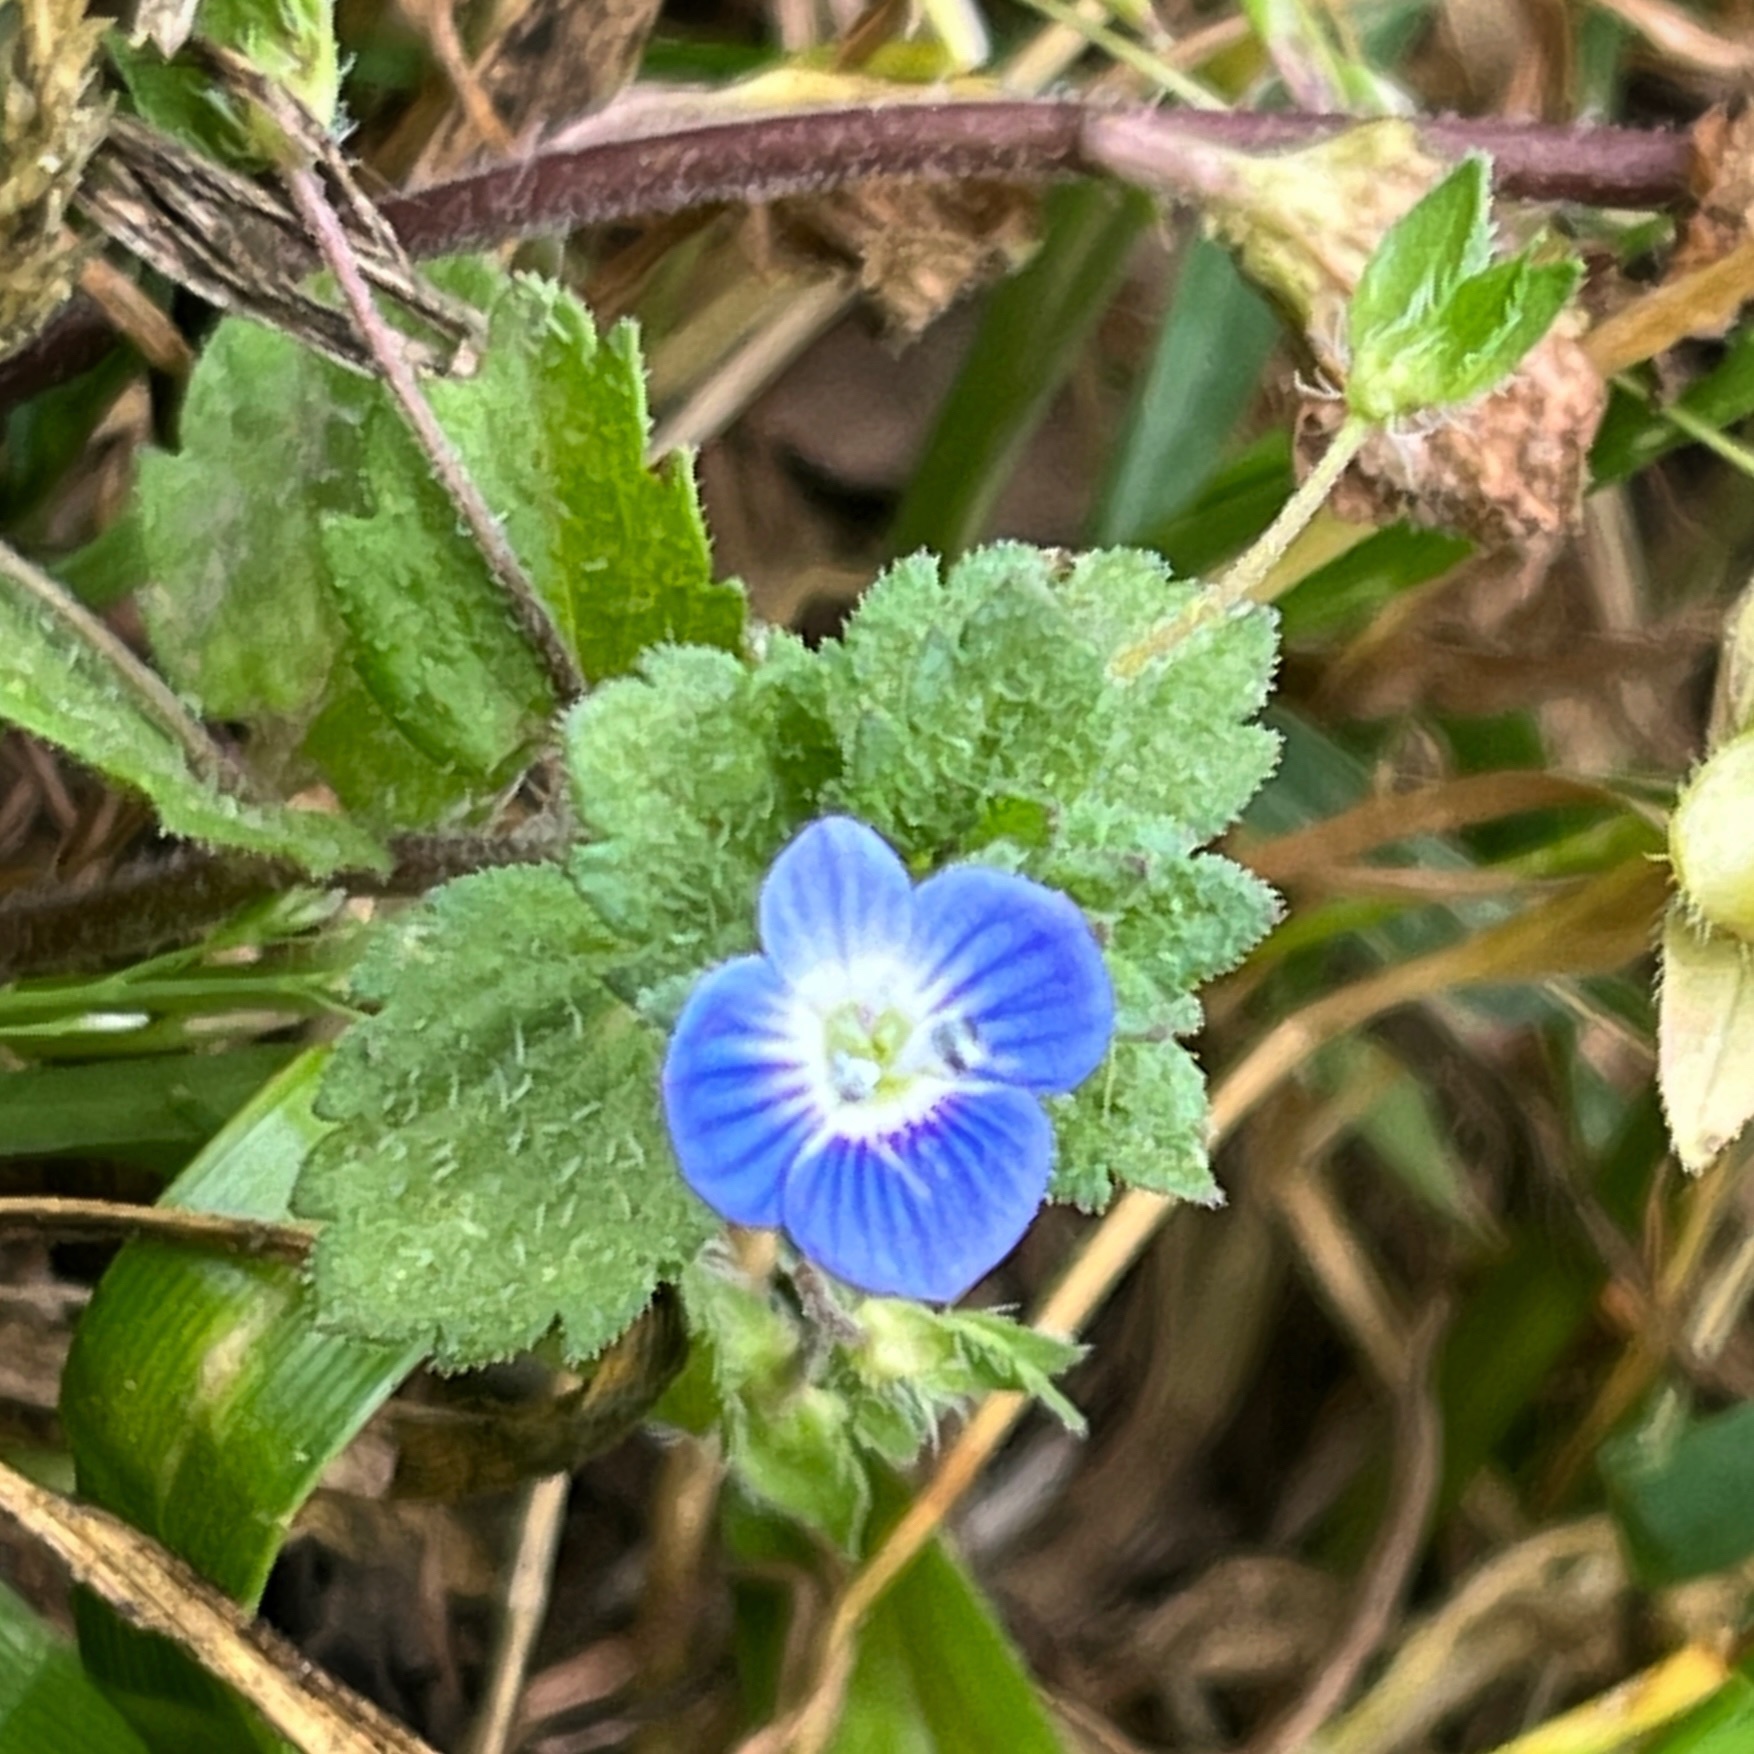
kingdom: Plantae
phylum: Tracheophyta
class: Magnoliopsida
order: Lamiales
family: Plantaginaceae
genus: Veronica
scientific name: Veronica persica
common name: Common field-speedwell
